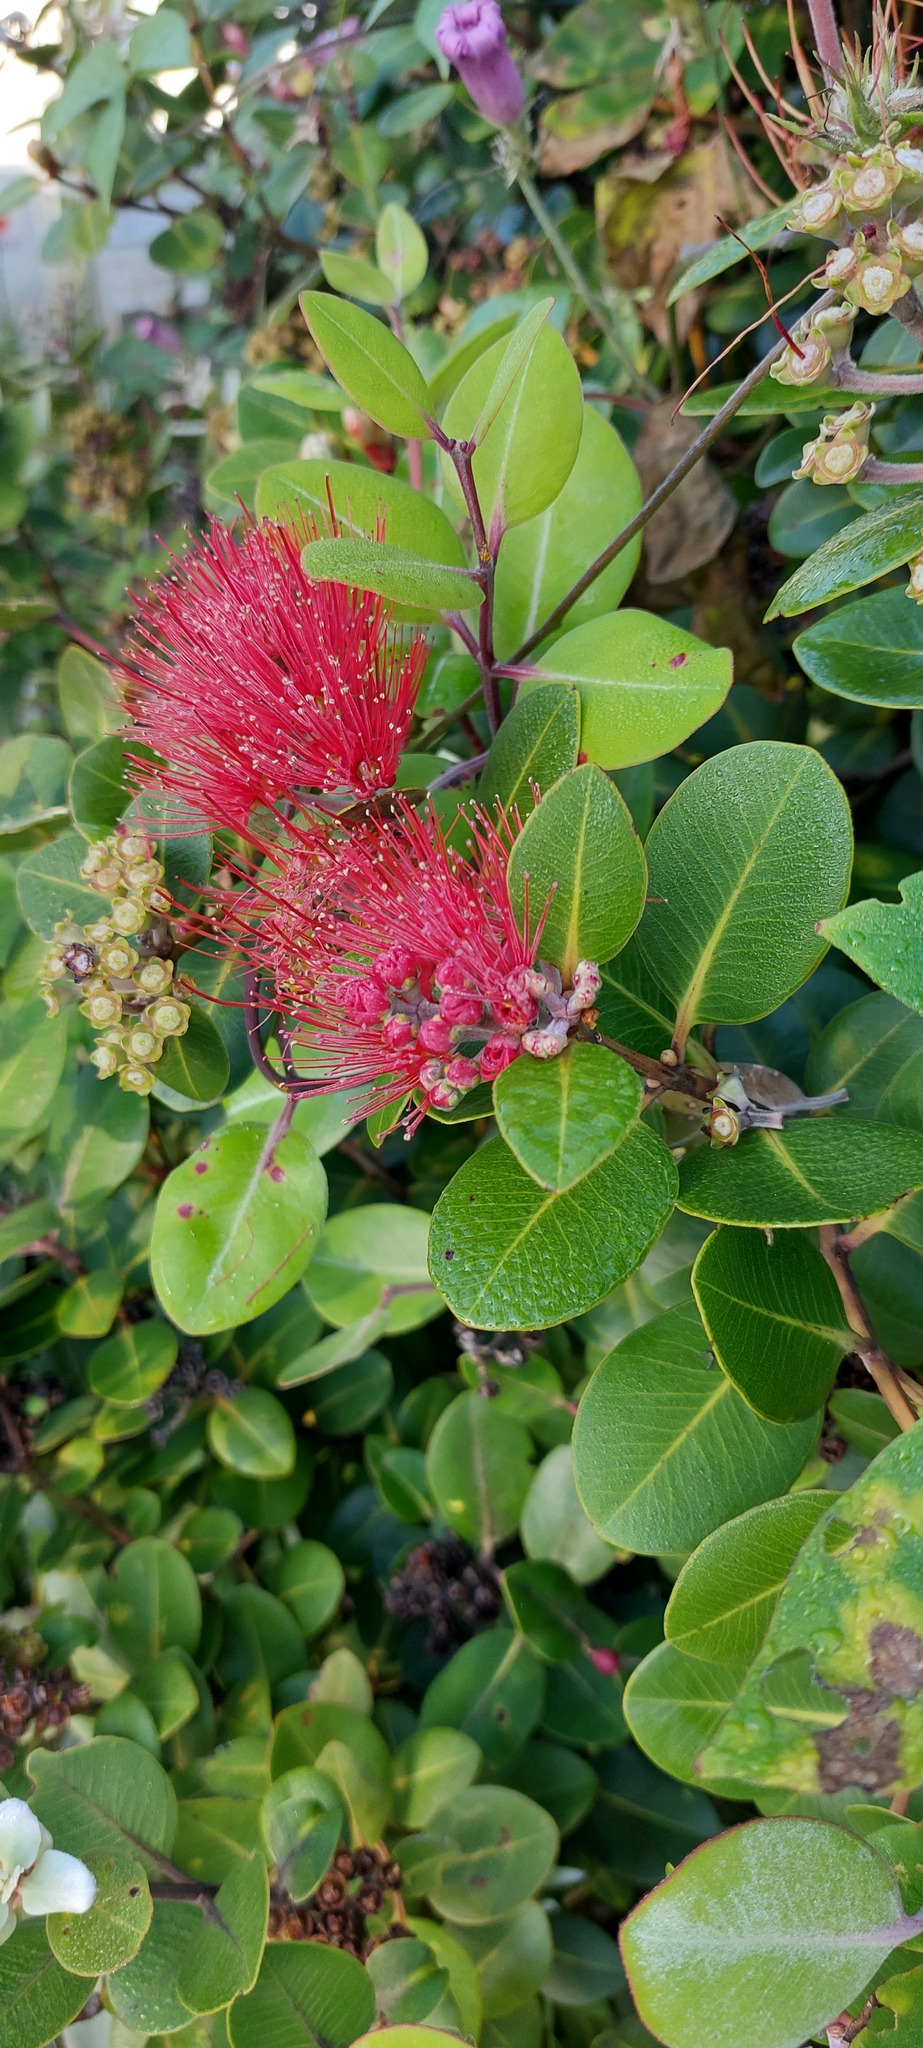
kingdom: Fungi
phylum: Basidiomycota
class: Pucciniomycetes
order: Pucciniales
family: Sphaerophragmiaceae
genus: Austropuccinia
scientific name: Austropuccinia psidii
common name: Myrtle rust
